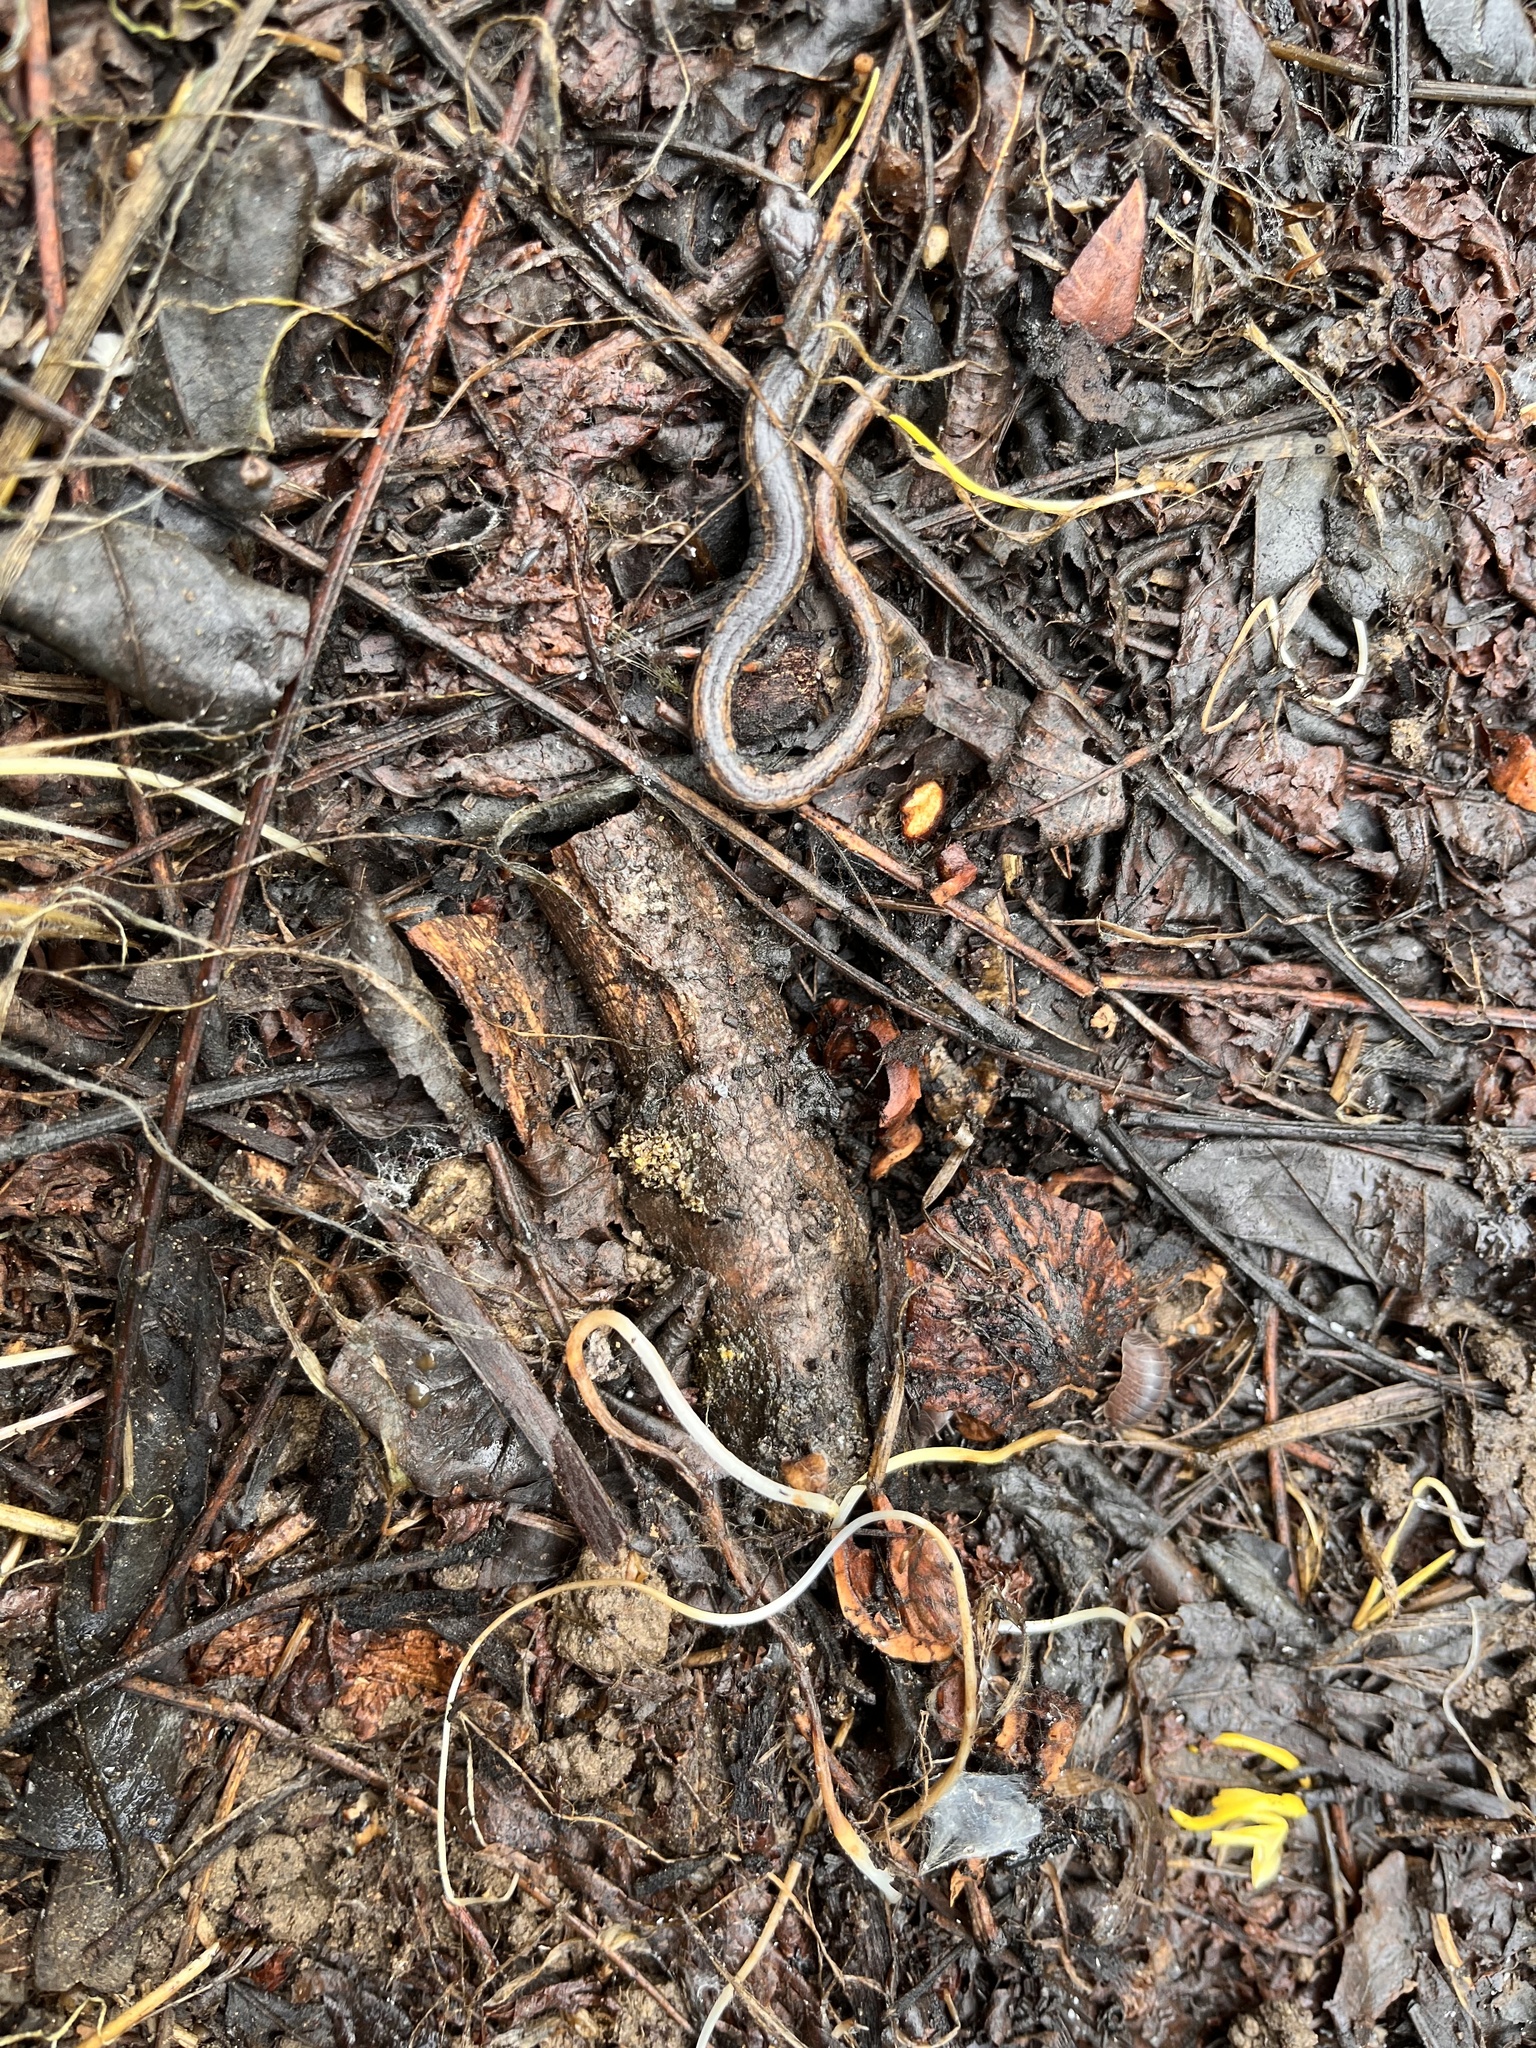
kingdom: Animalia
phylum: Chordata
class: Amphibia
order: Caudata
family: Plethodontidae
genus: Batrachoseps
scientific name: Batrachoseps attenuatus
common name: California slender salamander
